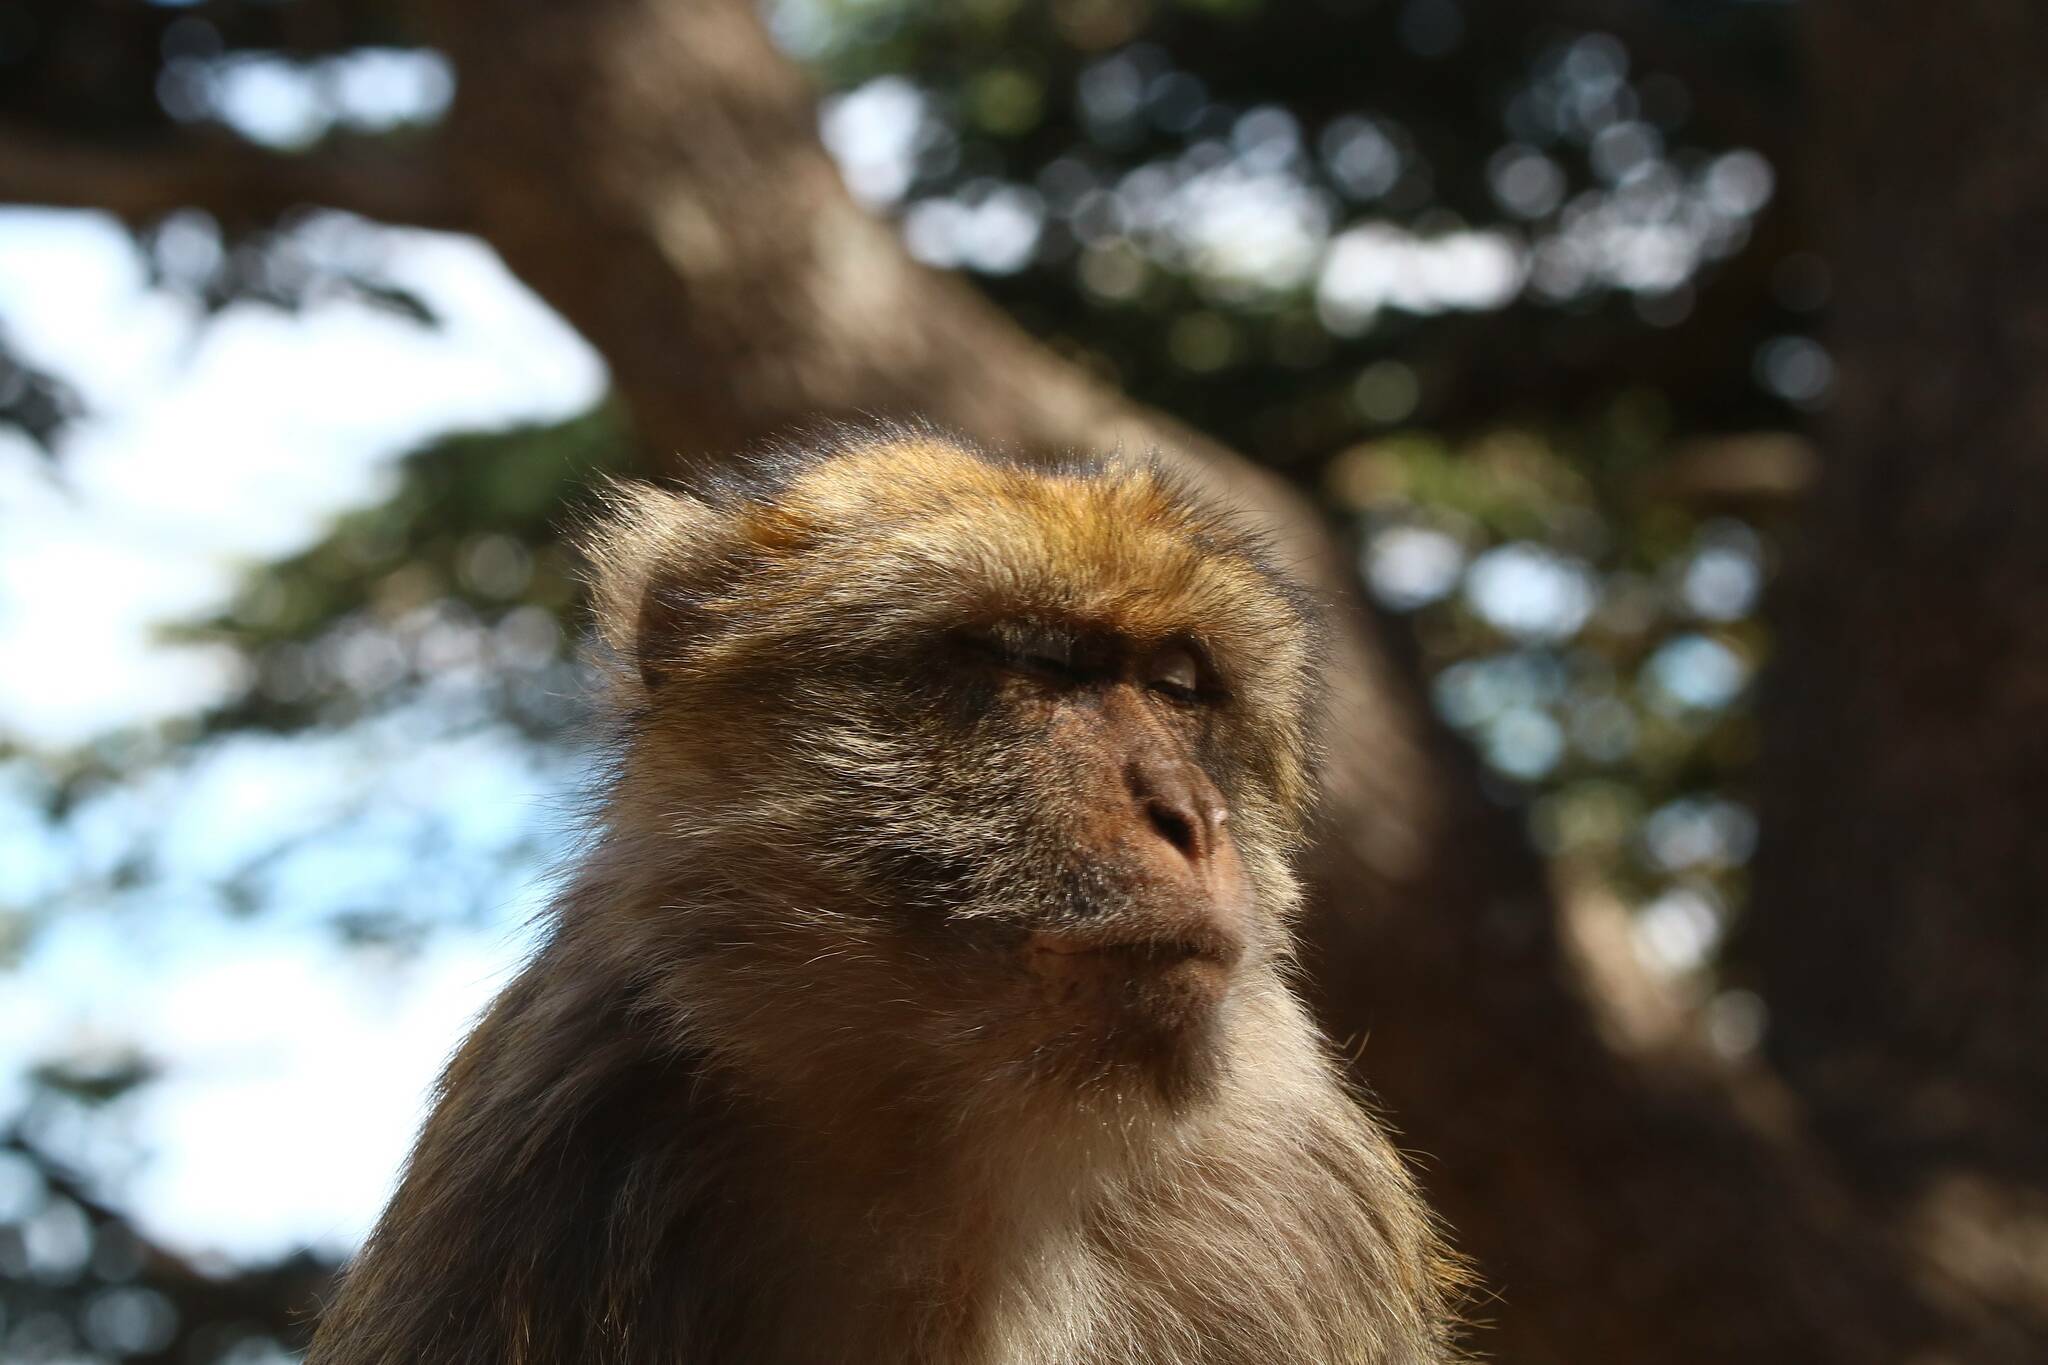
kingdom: Animalia
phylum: Chordata
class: Mammalia
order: Primates
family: Cercopithecidae
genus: Macaca
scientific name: Macaca sylvanus
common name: Barbary macaque
